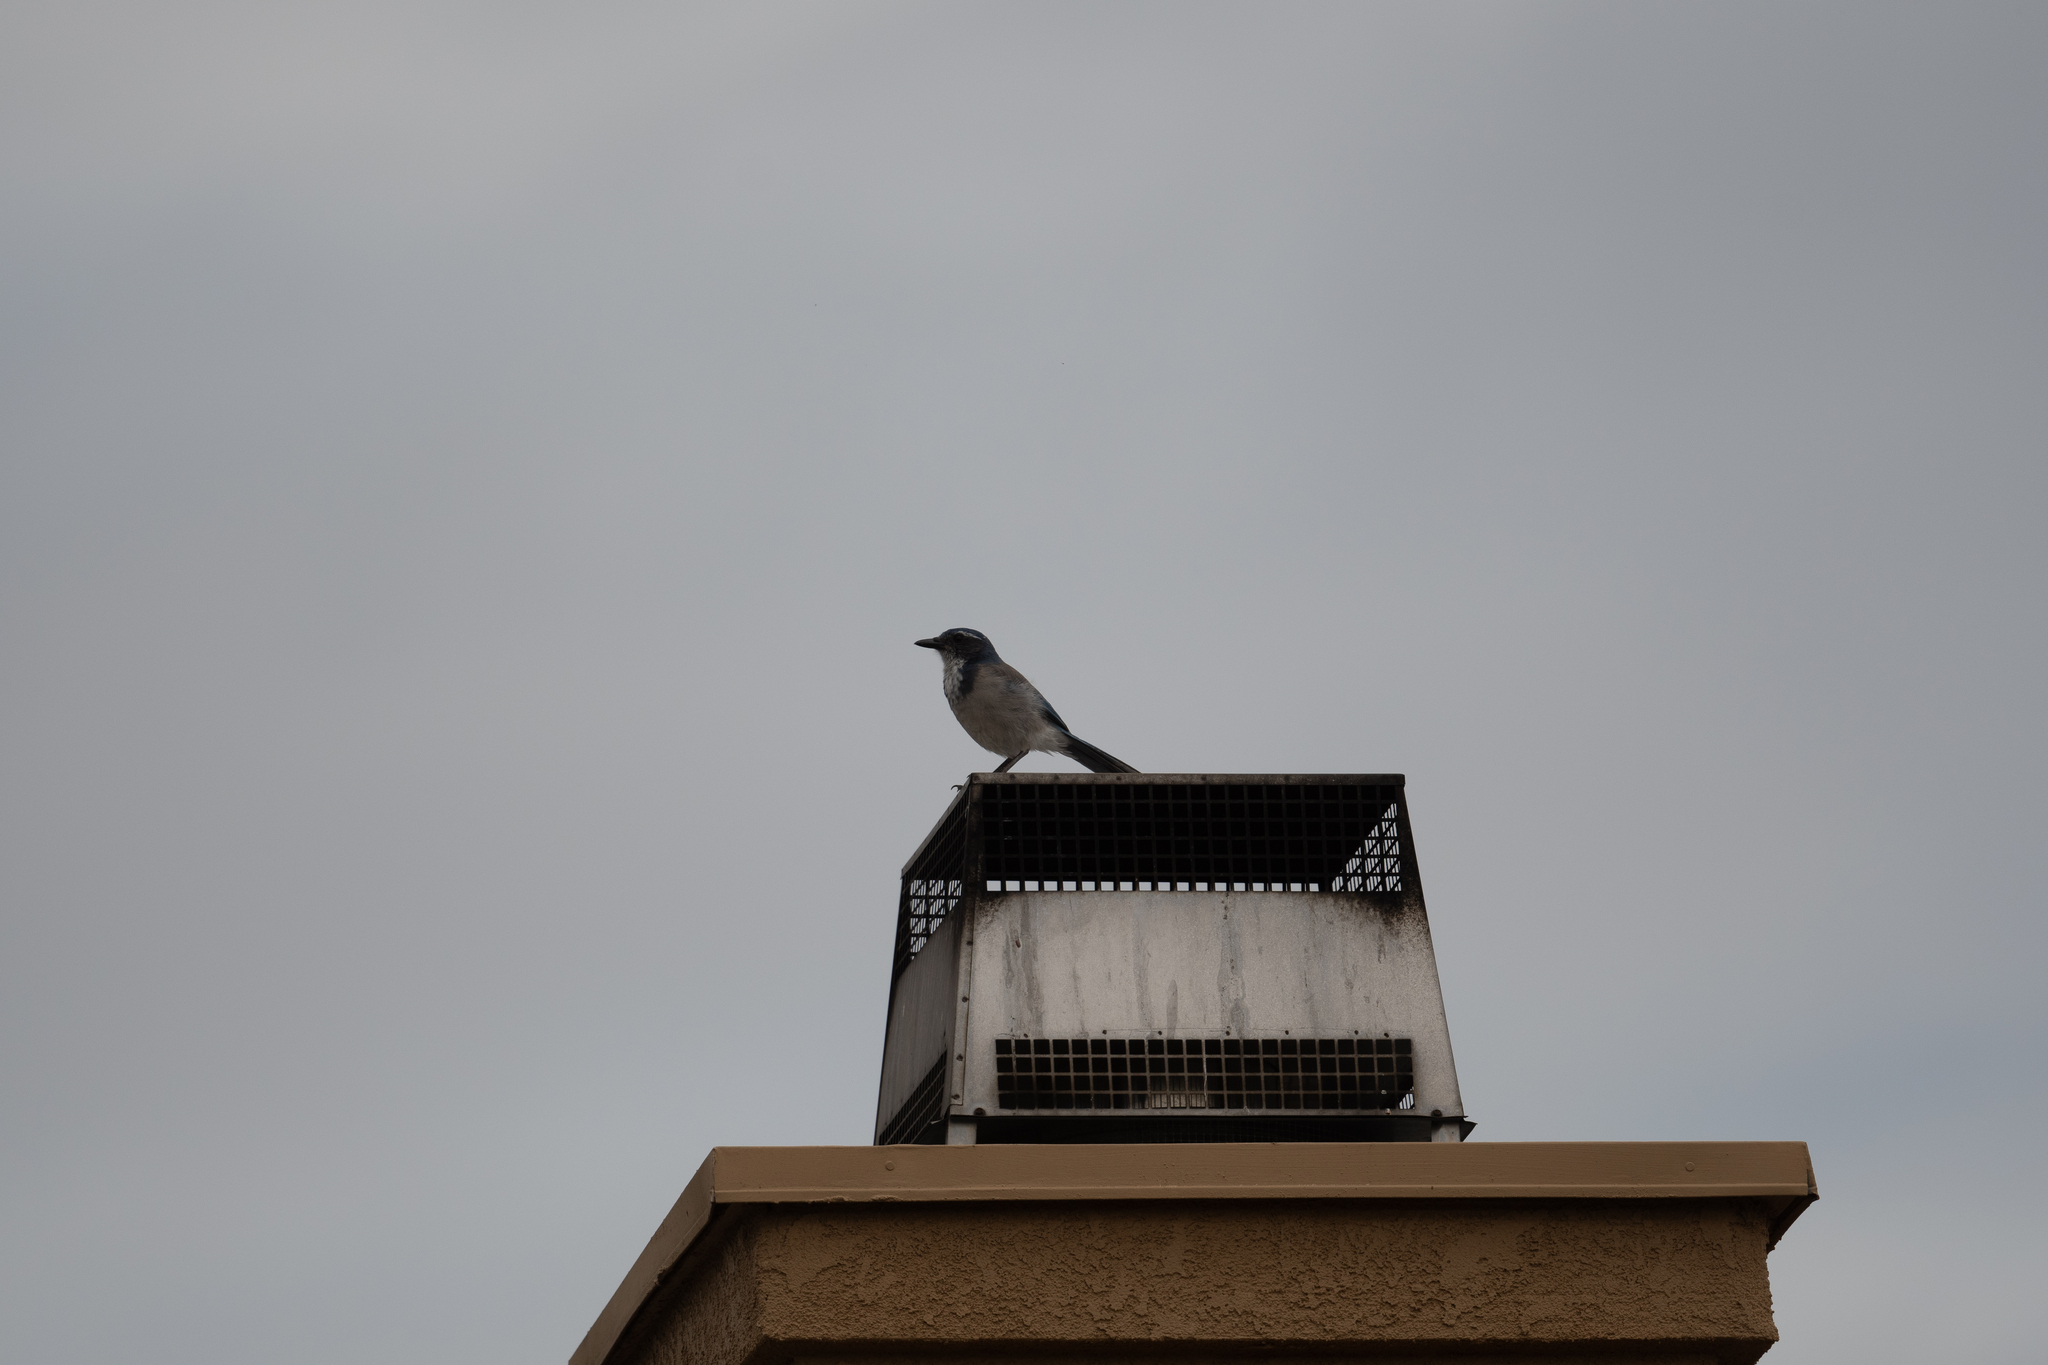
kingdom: Animalia
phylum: Chordata
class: Aves
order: Passeriformes
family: Corvidae
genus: Aphelocoma
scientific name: Aphelocoma californica
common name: California scrub-jay
